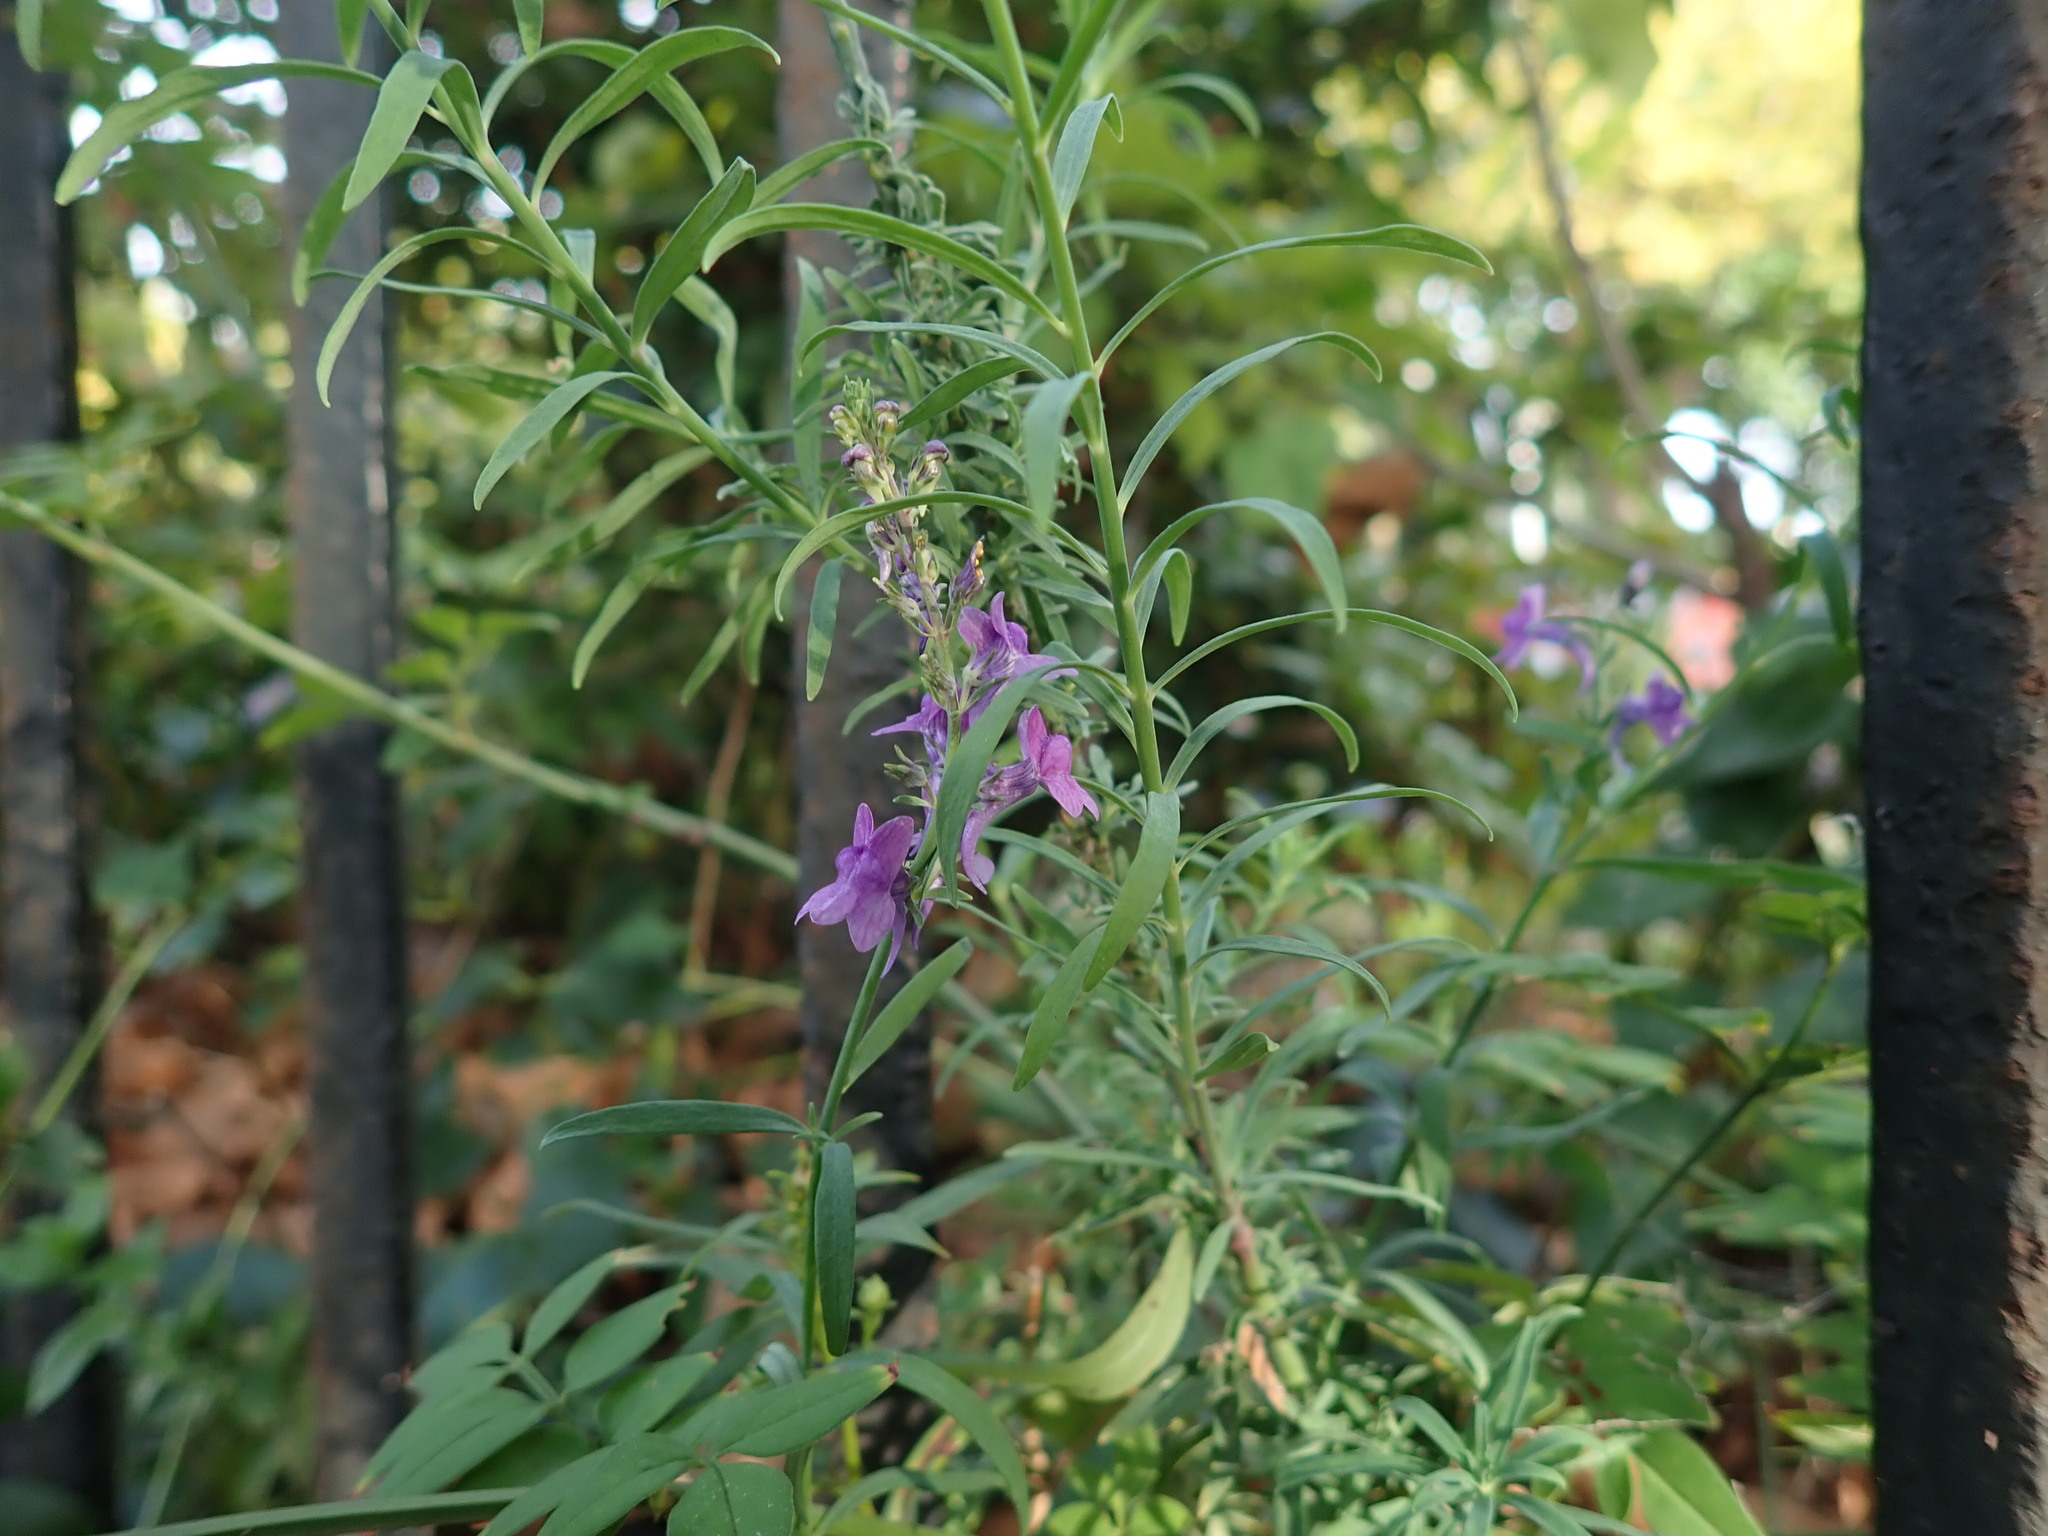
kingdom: Plantae
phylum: Tracheophyta
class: Magnoliopsida
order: Lamiales
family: Plantaginaceae
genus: Linaria
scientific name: Linaria purpurea
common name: Purple toadflax
